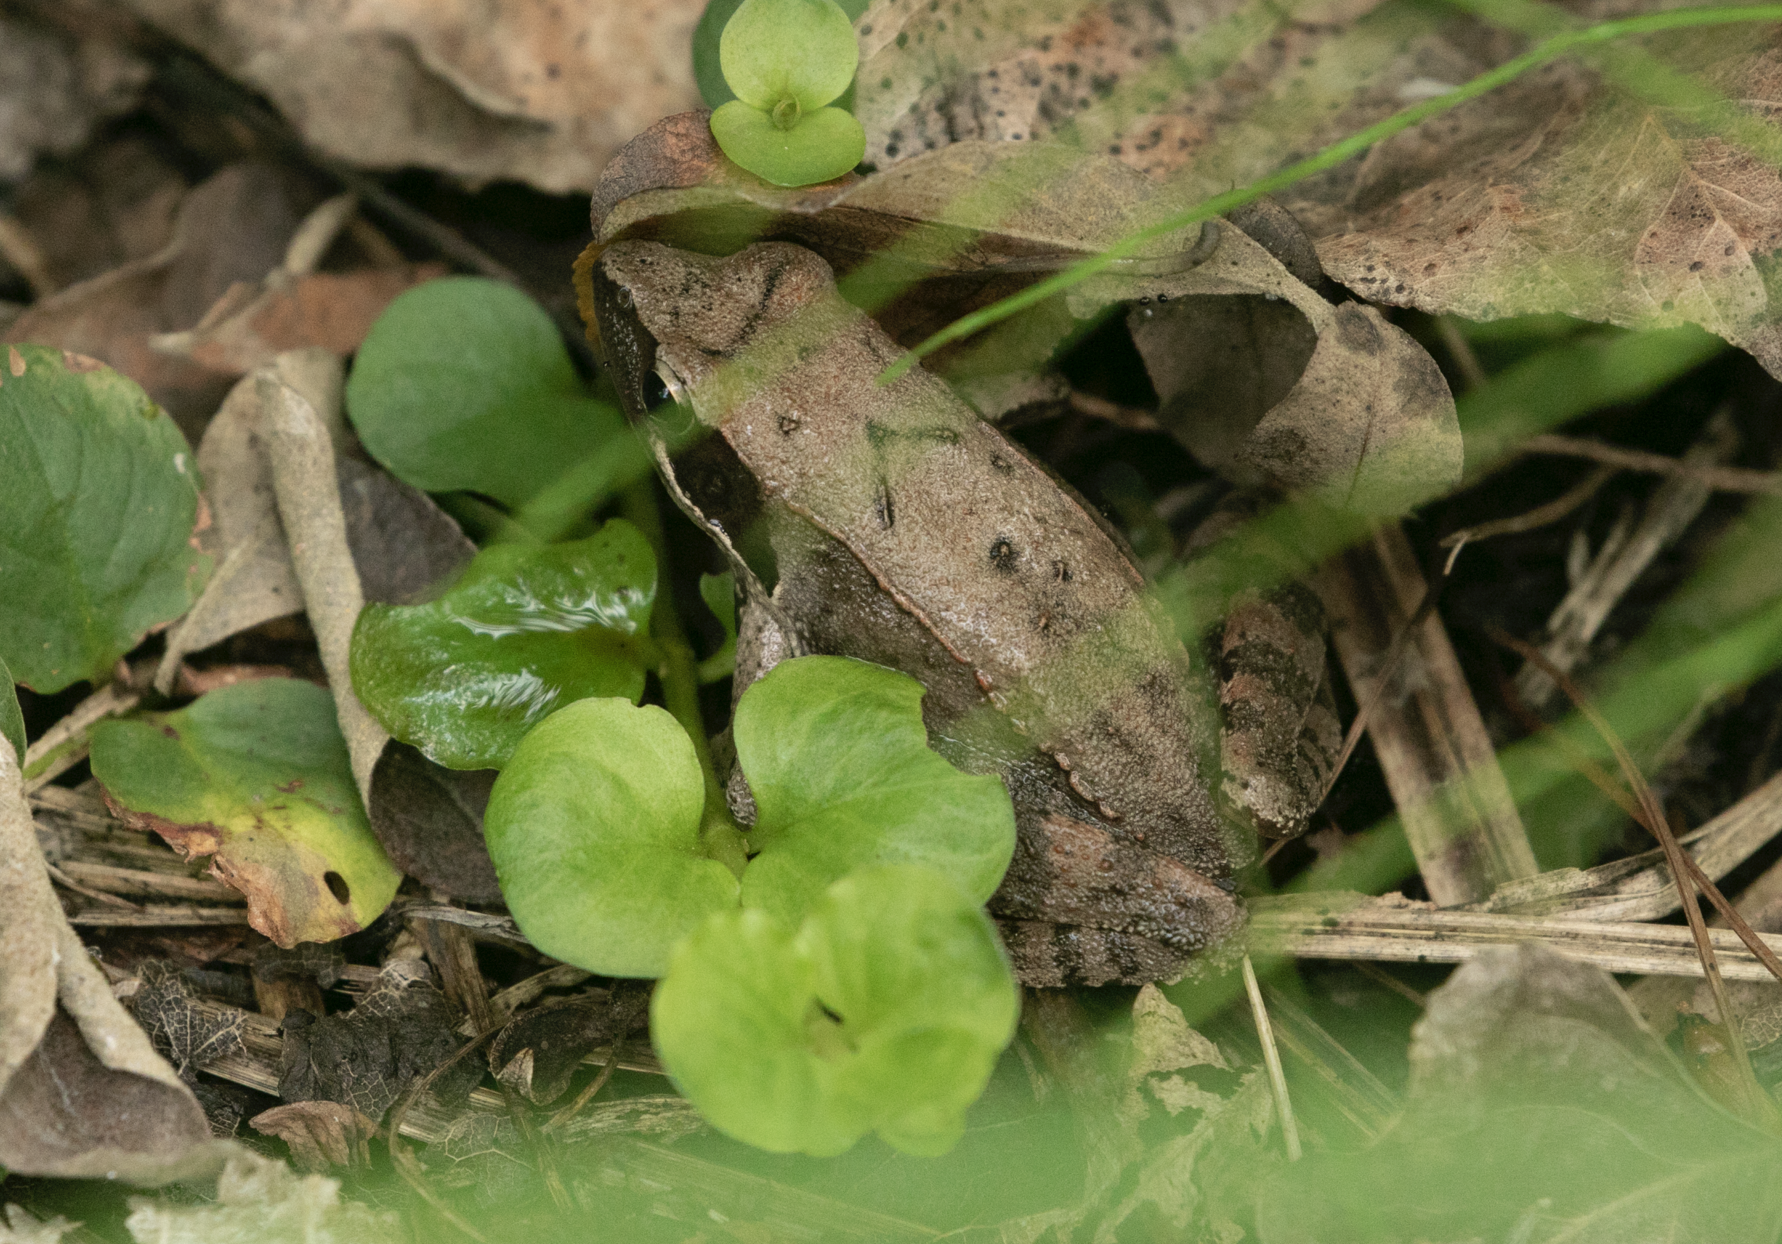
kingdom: Animalia
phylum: Chordata
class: Amphibia
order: Anura
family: Ranidae
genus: Rana
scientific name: Rana latastei
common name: Italian agile frog
